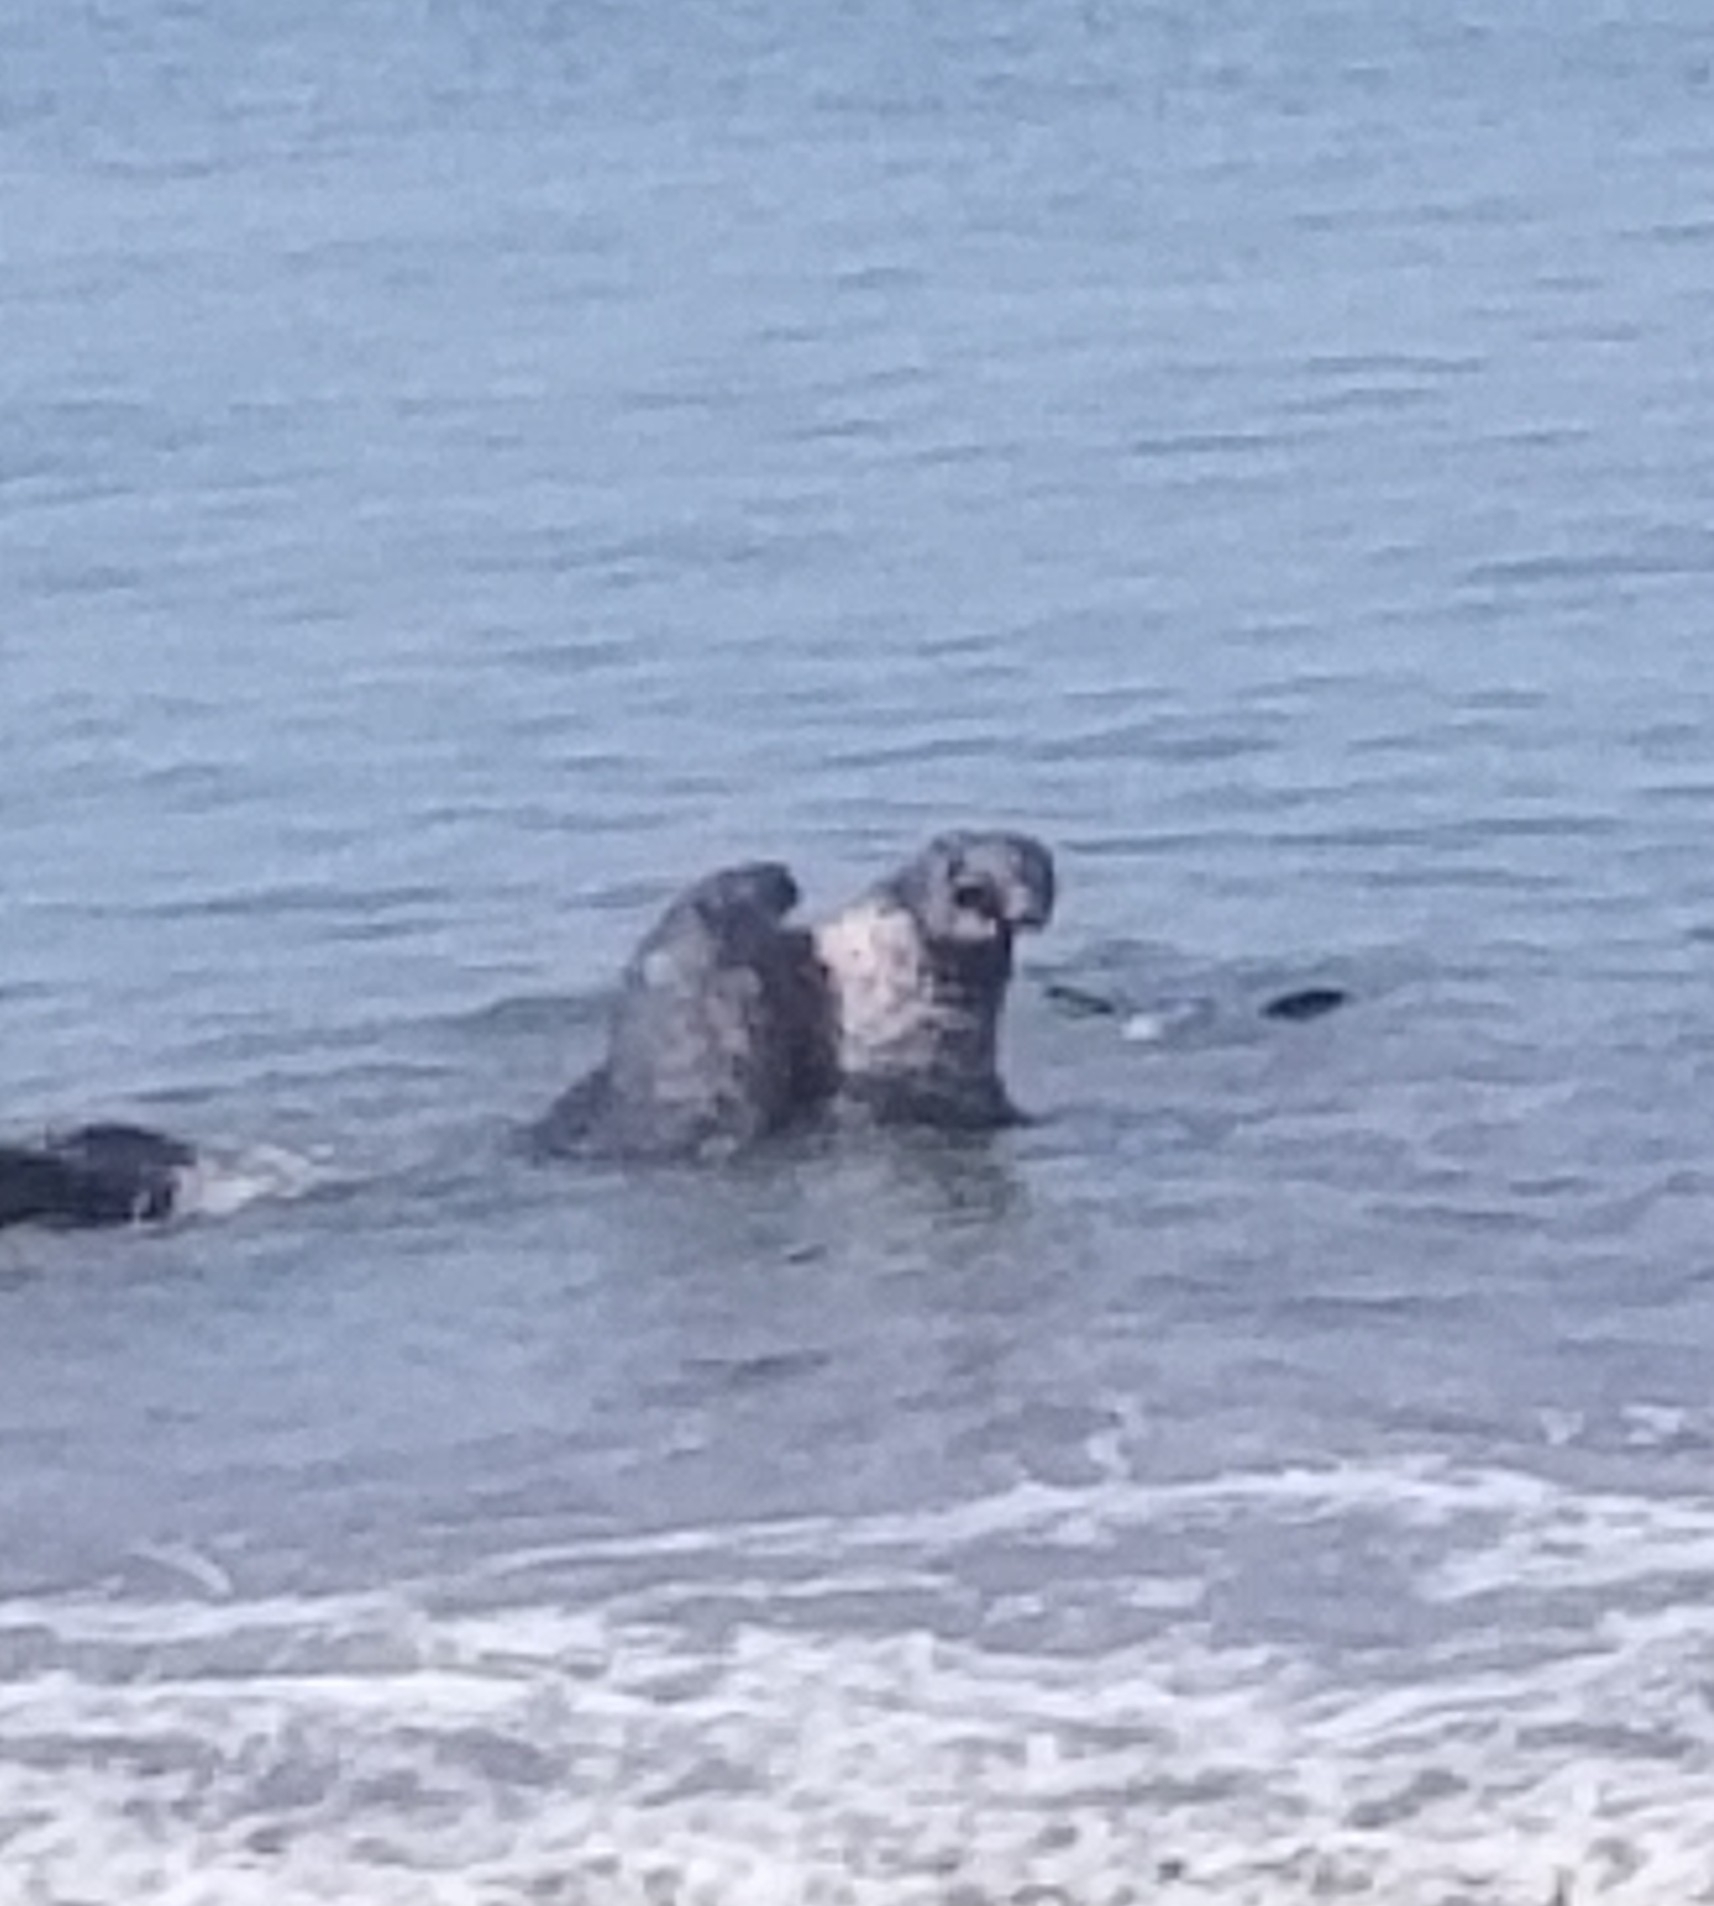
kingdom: Animalia
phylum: Chordata
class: Mammalia
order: Carnivora
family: Phocidae
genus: Mirounga
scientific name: Mirounga angustirostris
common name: Northern elephant seal
